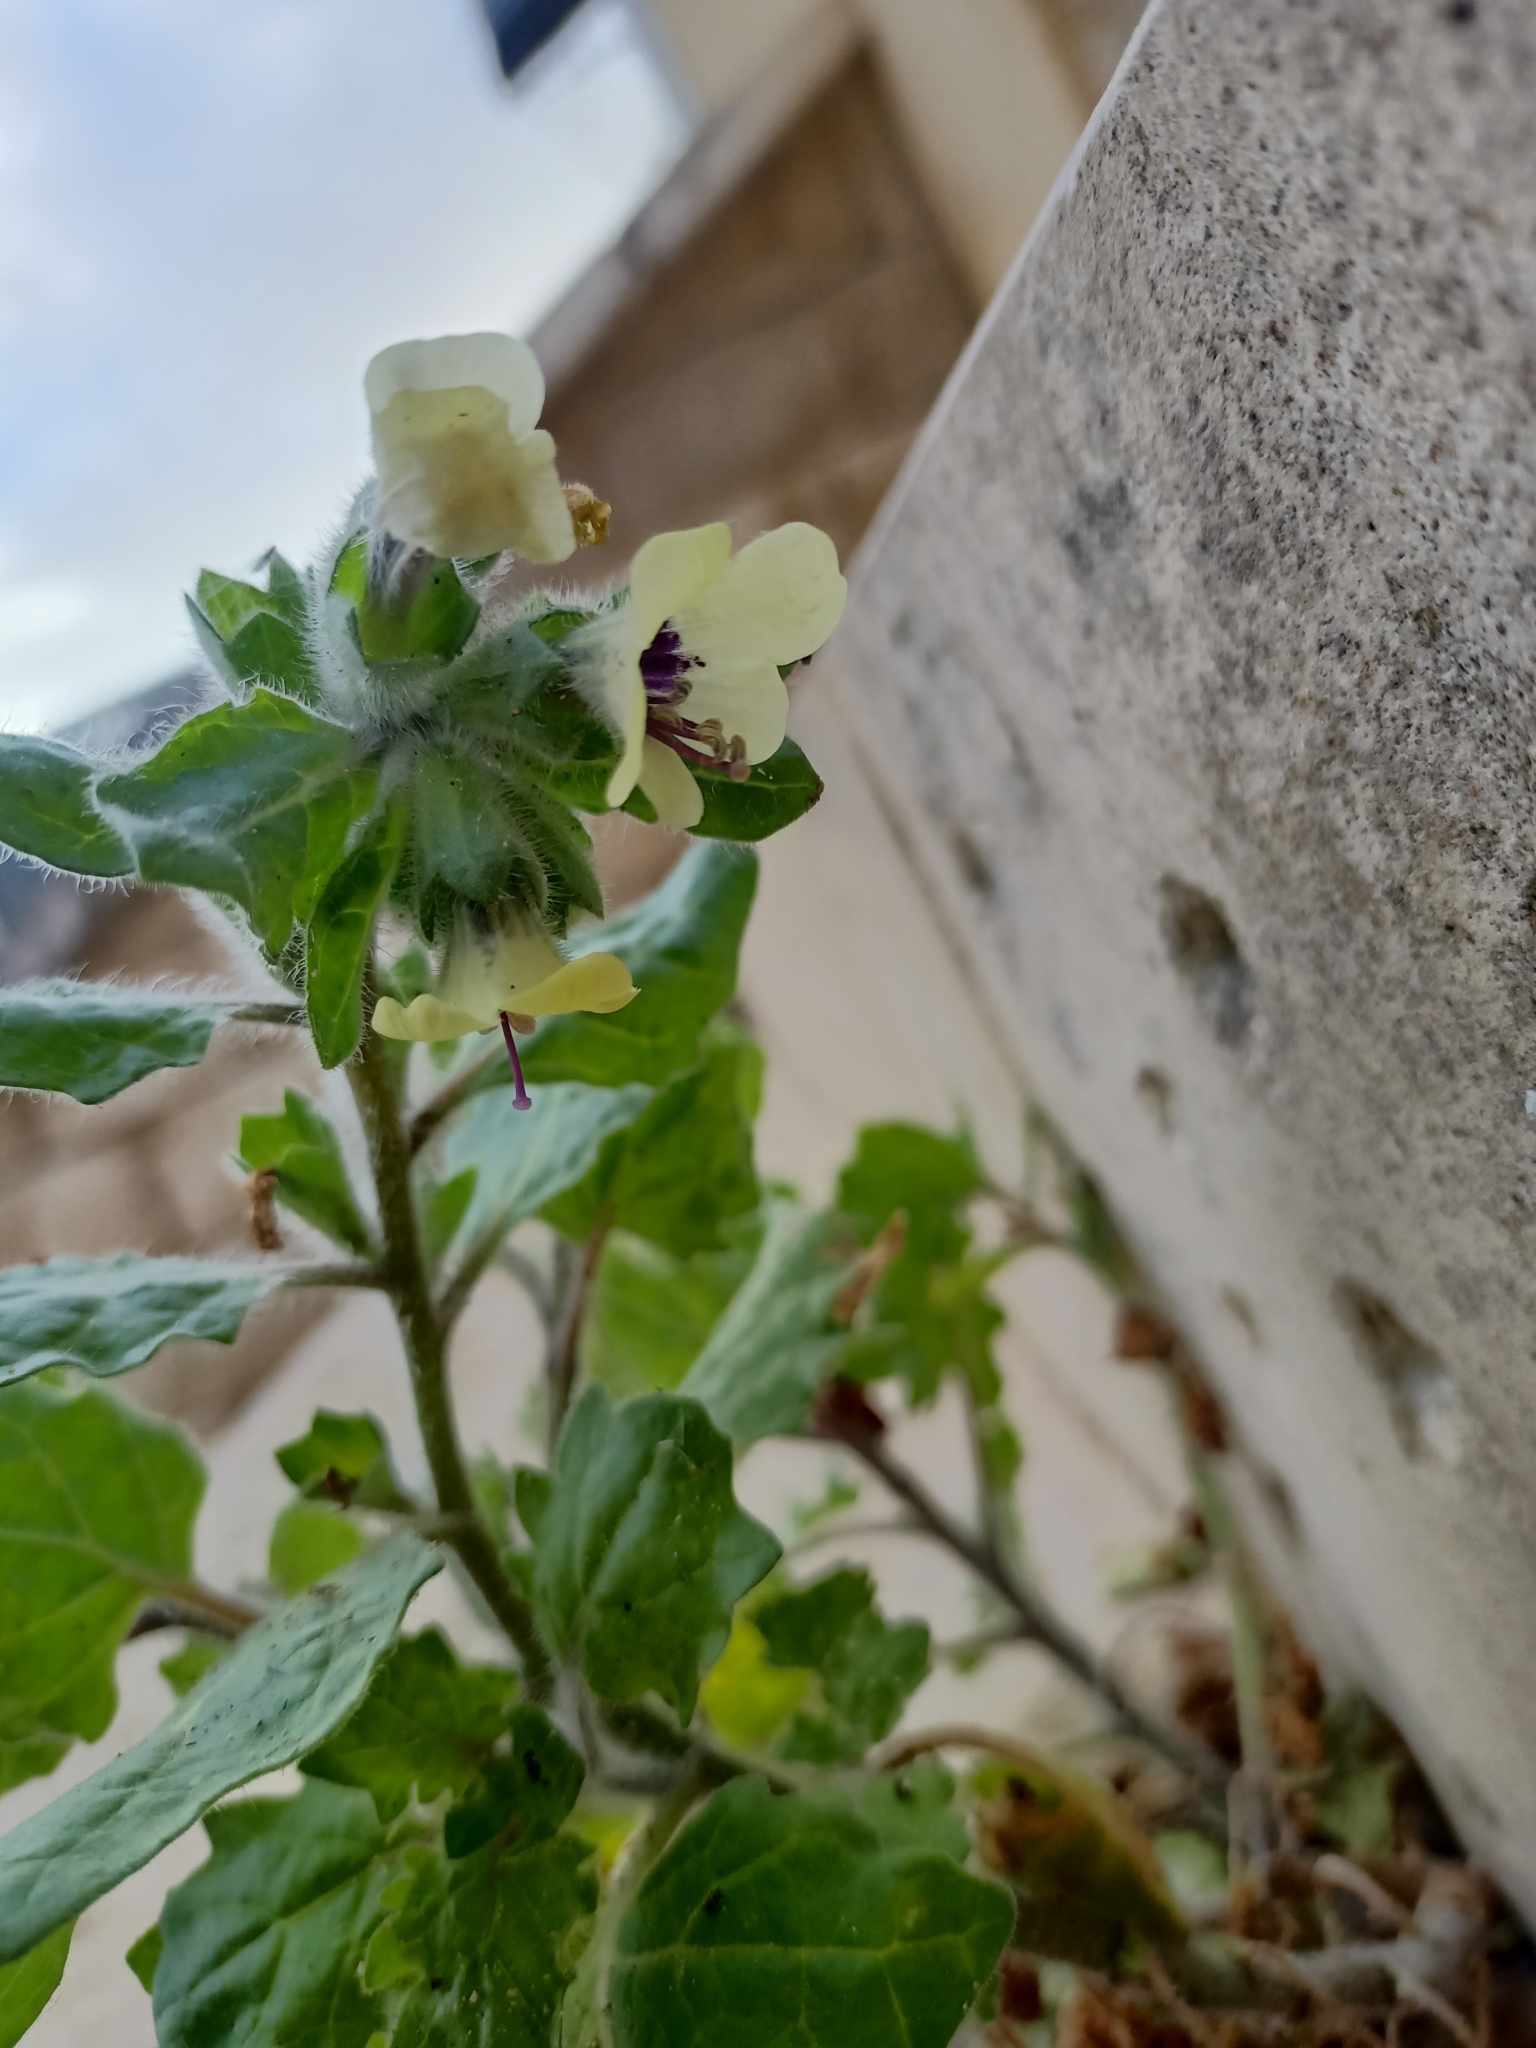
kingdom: Plantae
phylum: Tracheophyta
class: Magnoliopsida
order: Solanales
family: Solanaceae
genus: Hyoscyamus
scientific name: Hyoscyamus albus
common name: White henbane
